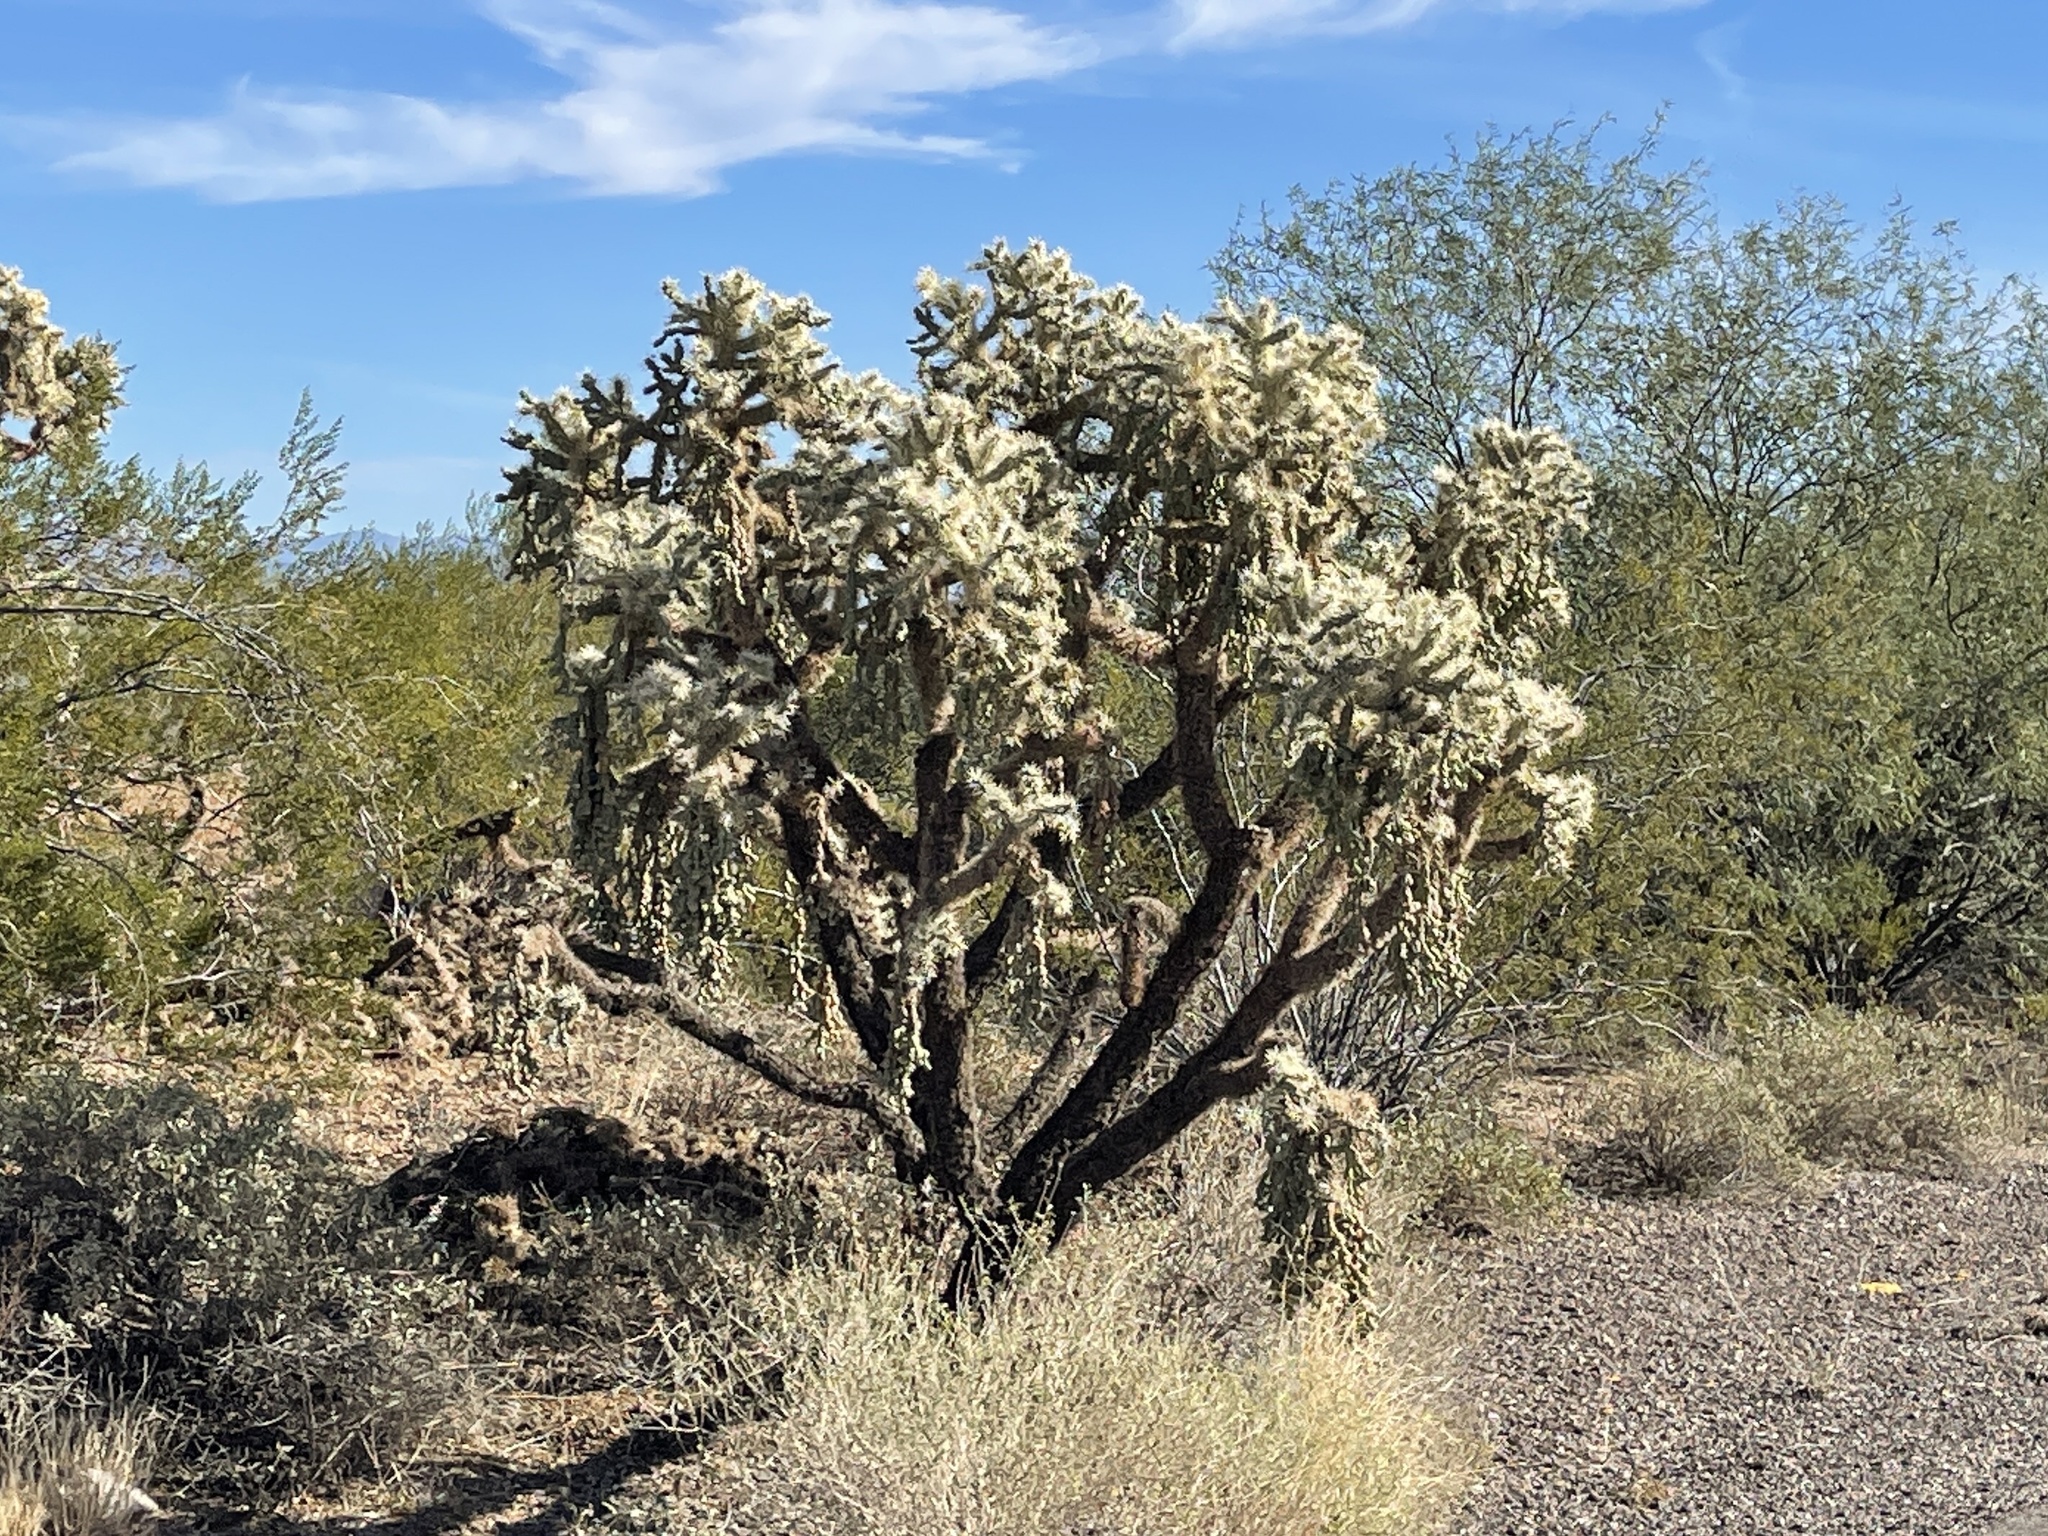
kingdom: Plantae
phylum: Tracheophyta
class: Magnoliopsida
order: Caryophyllales
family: Cactaceae
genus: Cylindropuntia
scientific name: Cylindropuntia fulgida
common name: Jumping cholla
